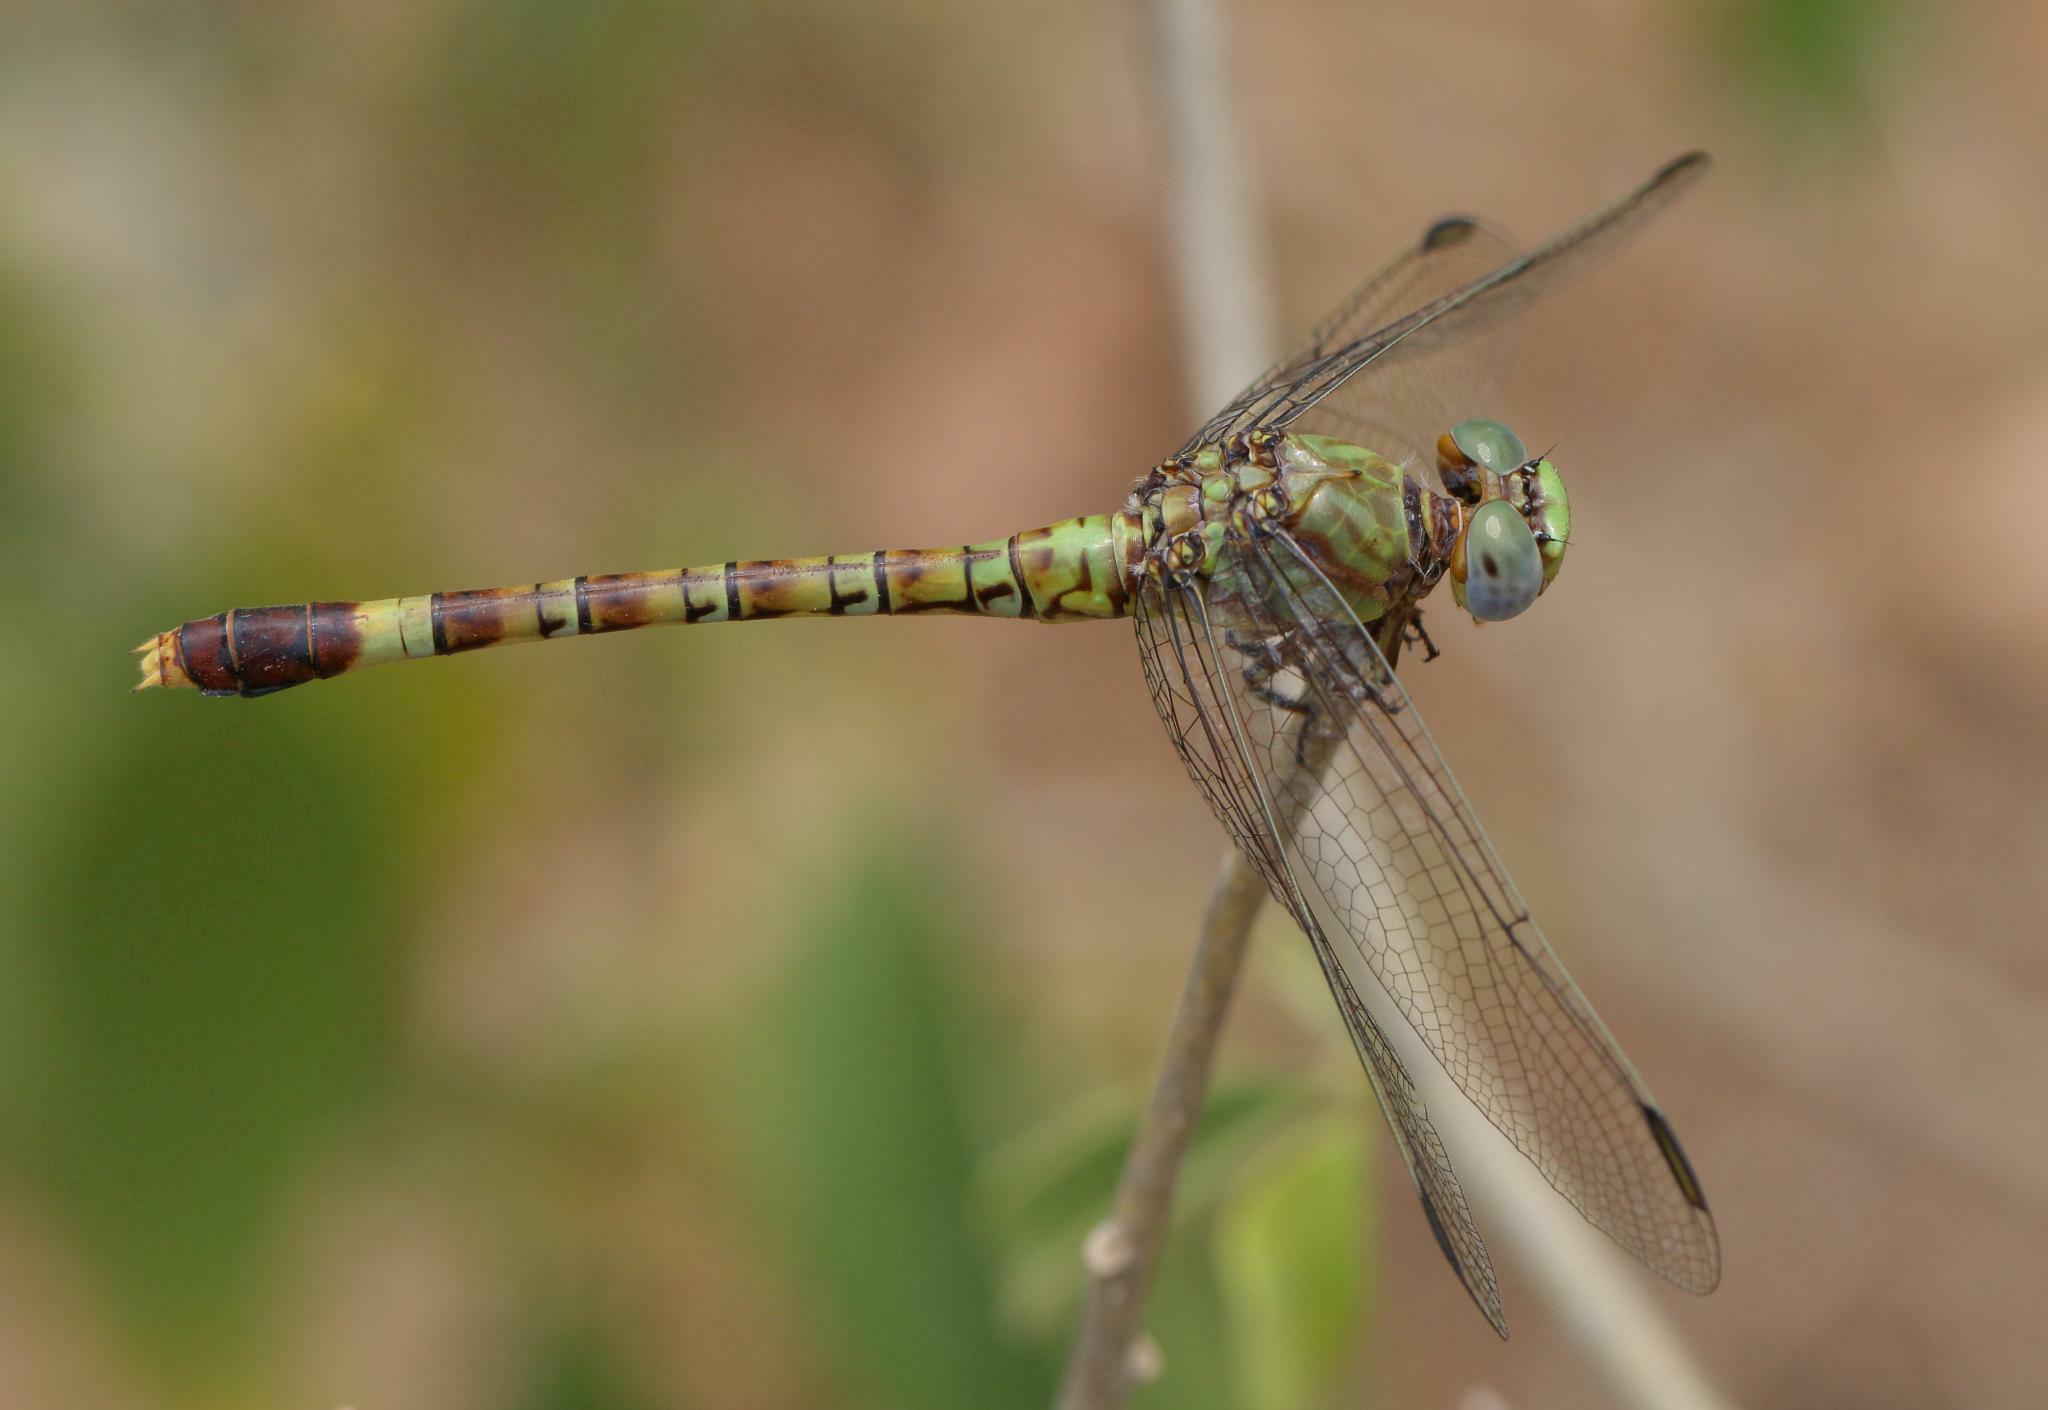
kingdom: Animalia
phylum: Arthropoda
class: Insecta
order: Odonata
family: Gomphidae
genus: Paragomphus
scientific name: Paragomphus genei
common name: Common hooktail
